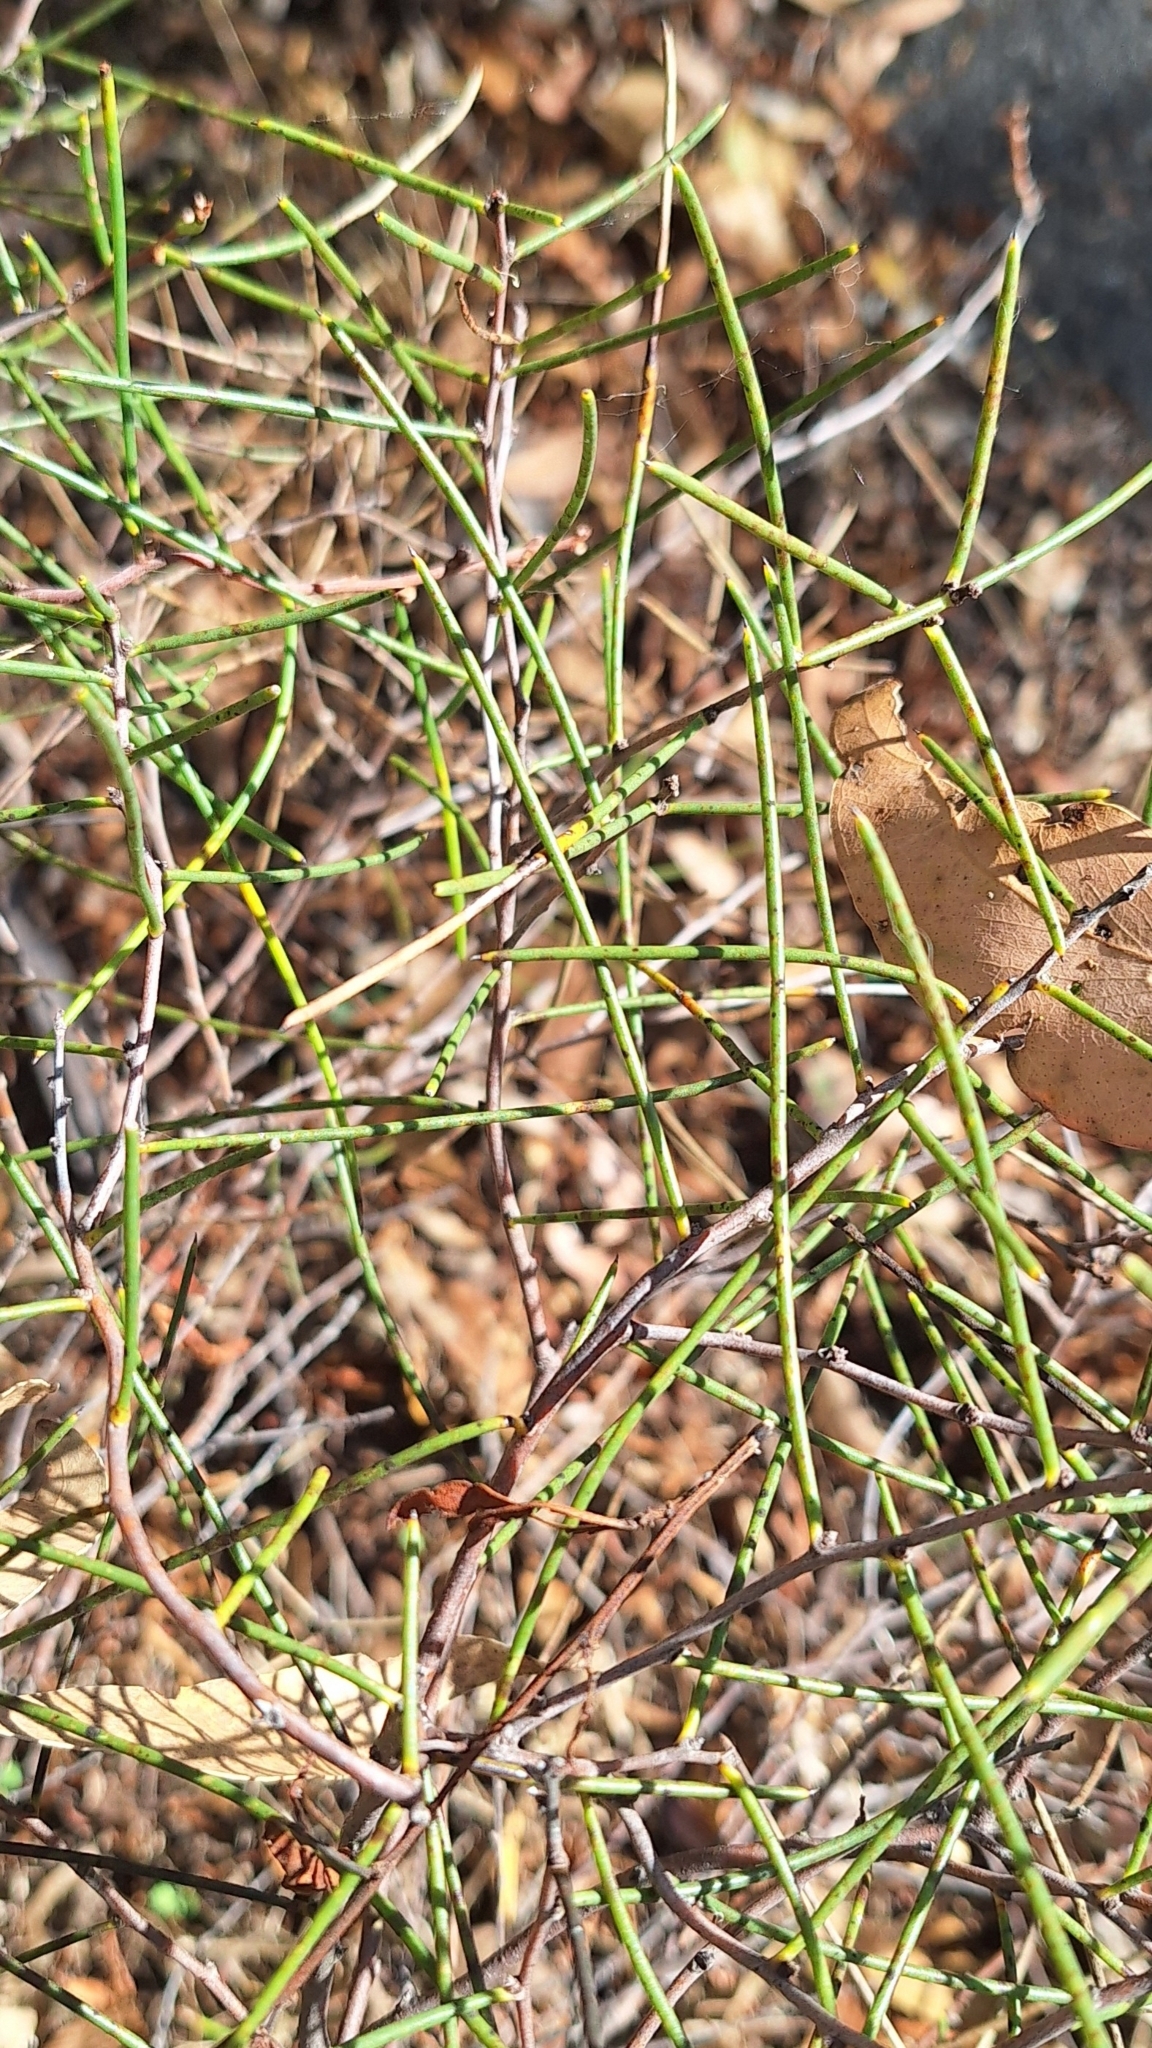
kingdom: Plantae
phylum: Tracheophyta
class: Magnoliopsida
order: Proteales
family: Proteaceae
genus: Hakea
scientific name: Hakea rostrata
